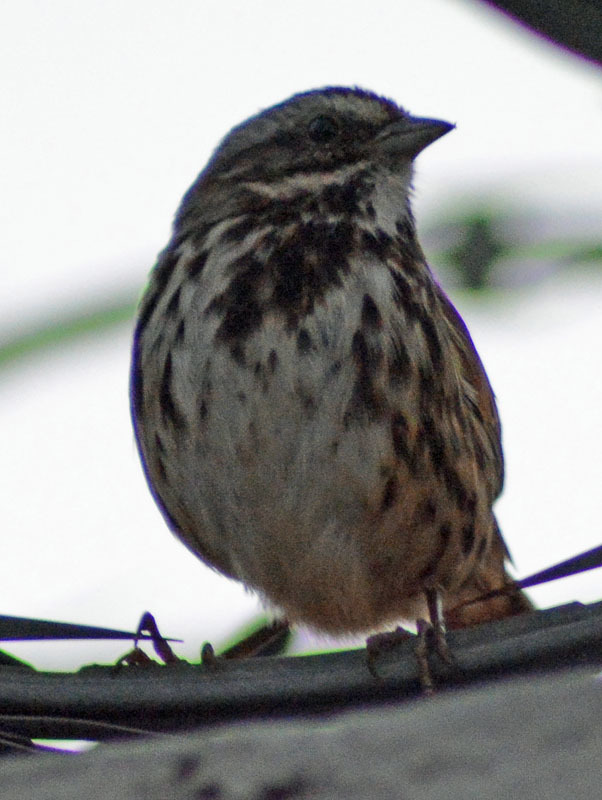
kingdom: Animalia
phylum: Chordata
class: Aves
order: Passeriformes
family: Passerellidae
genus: Melospiza
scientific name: Melospiza melodia
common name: Song sparrow
